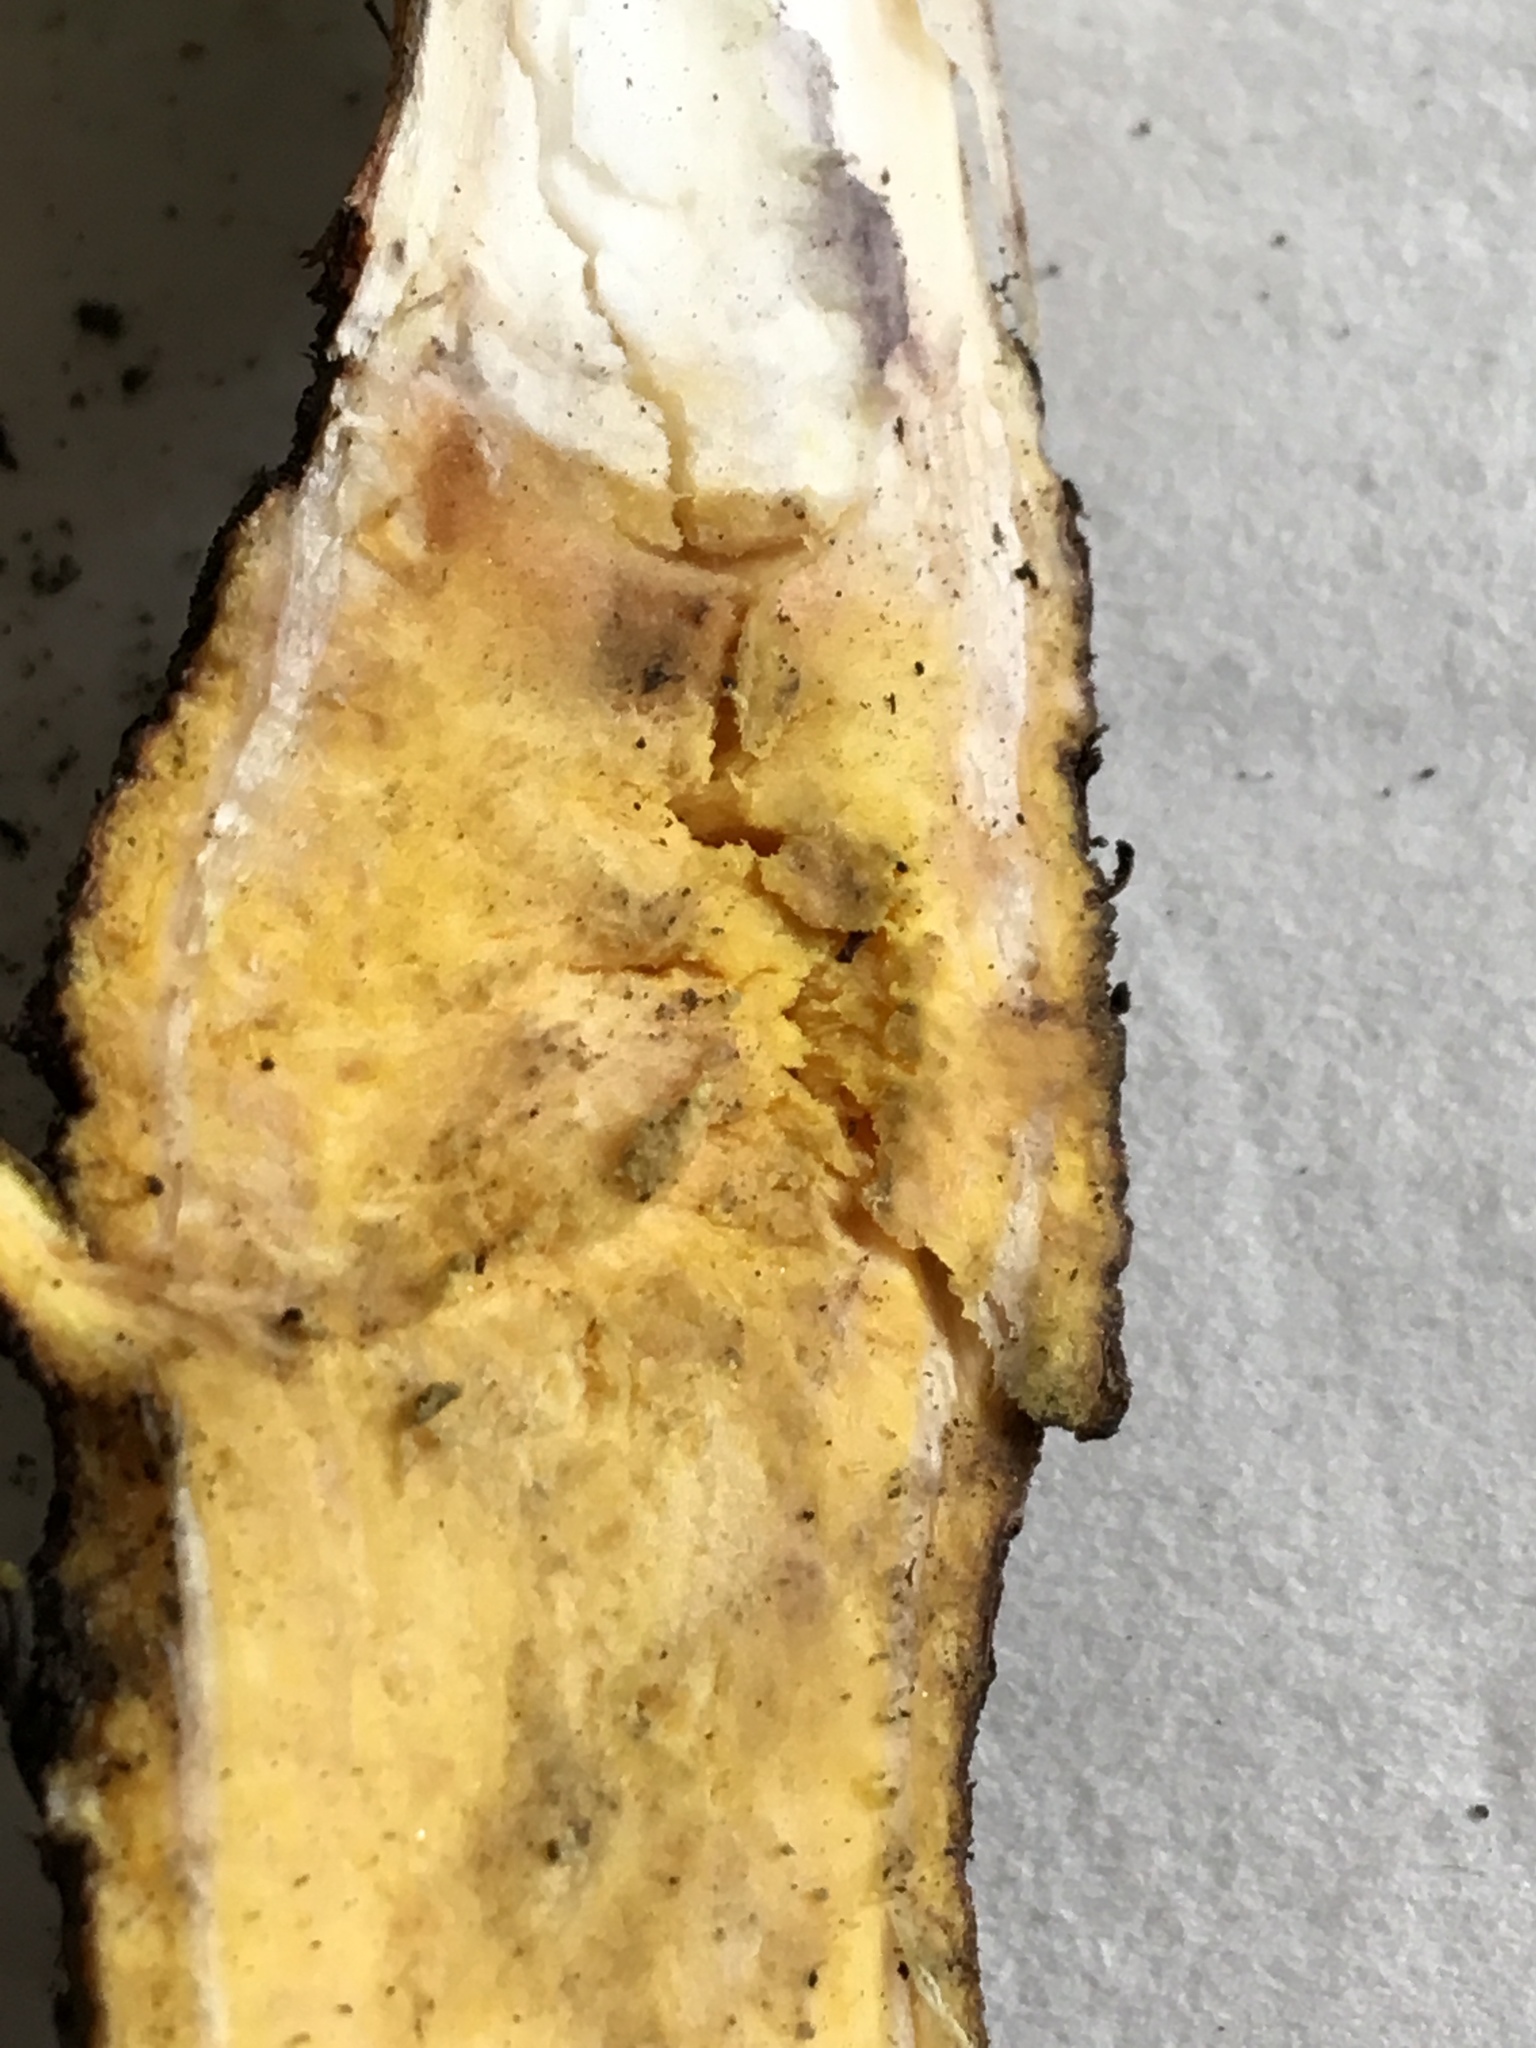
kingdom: Plantae
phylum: Tracheophyta
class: Magnoliopsida
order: Caryophyllales
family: Polygonaceae
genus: Rumex
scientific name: Rumex patientia
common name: Patience dock
